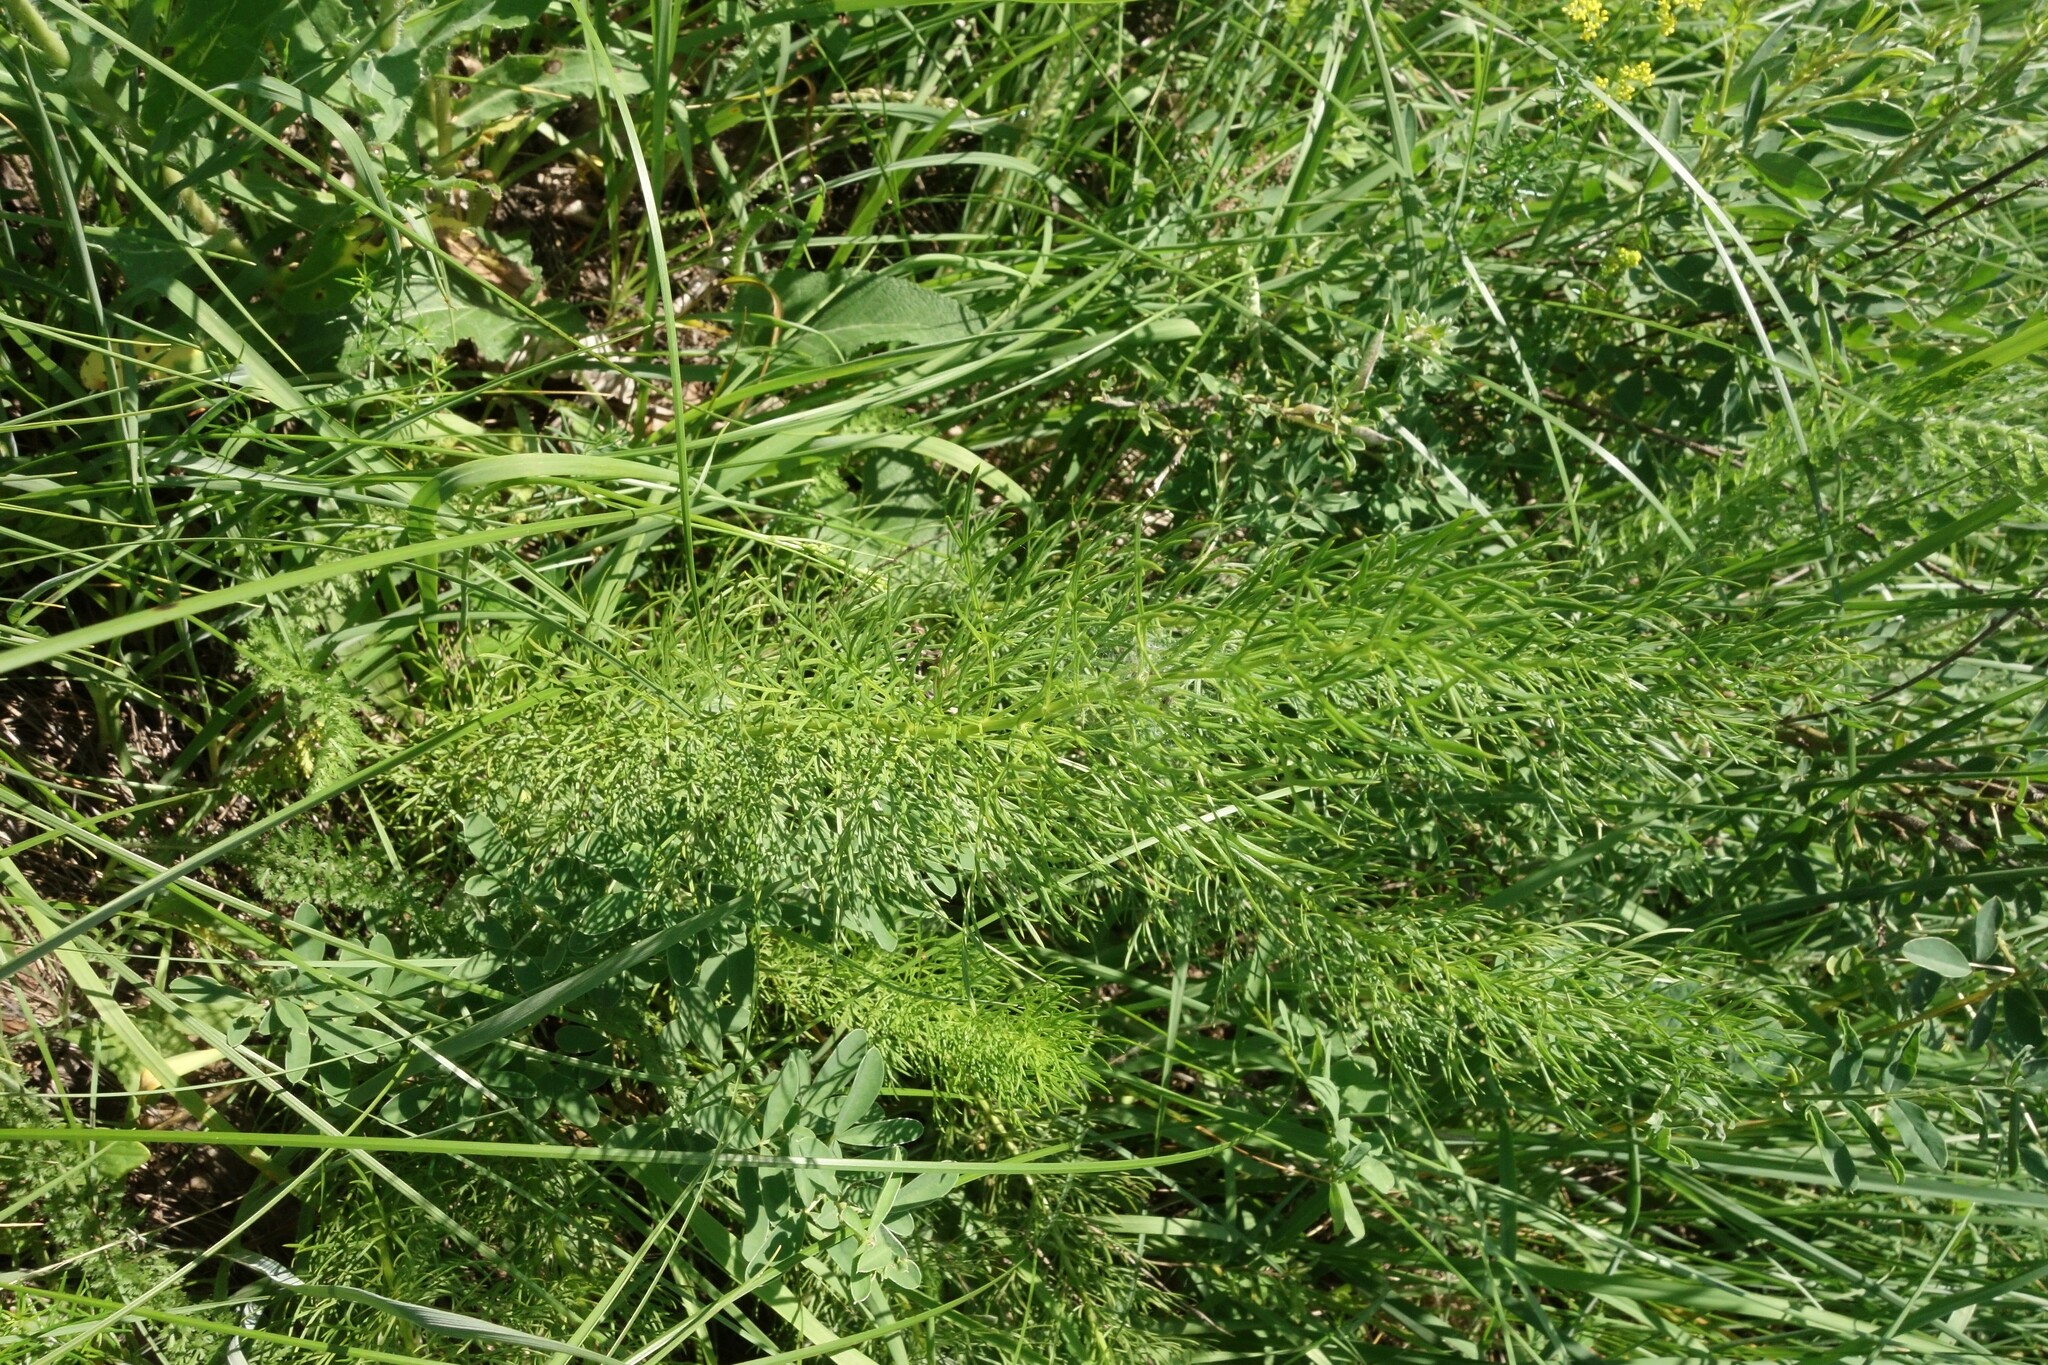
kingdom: Plantae
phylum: Tracheophyta
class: Magnoliopsida
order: Ranunculales
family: Ranunculaceae
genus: Adonis
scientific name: Adonis vernalis
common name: Yellow pheasants-eye
